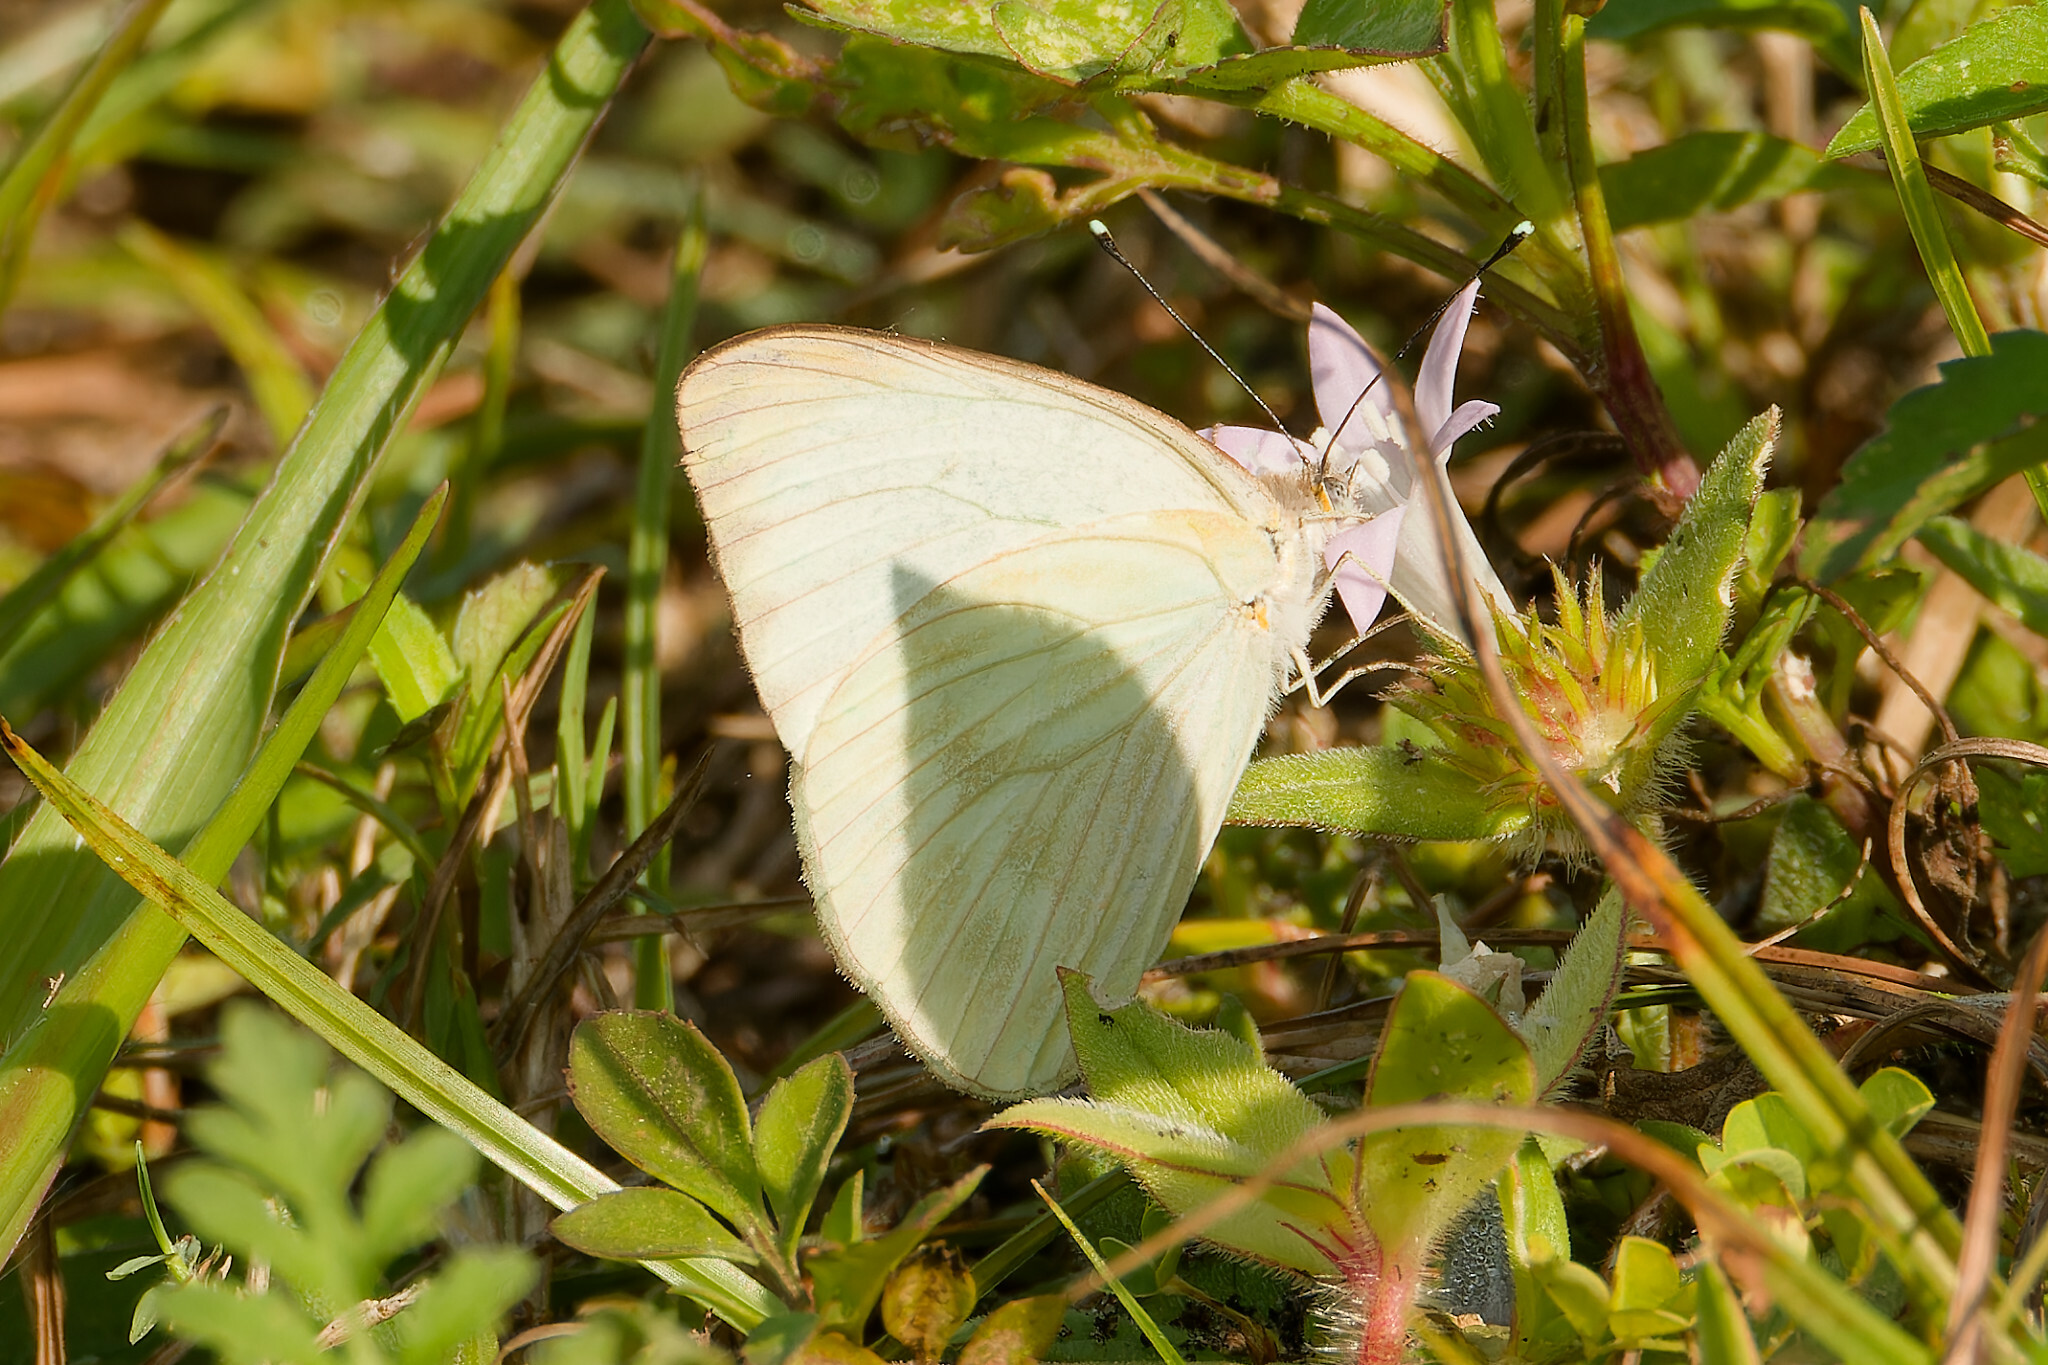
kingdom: Animalia
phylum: Arthropoda
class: Insecta
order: Lepidoptera
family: Pieridae
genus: Ascia
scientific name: Ascia monuste
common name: Great southern white
